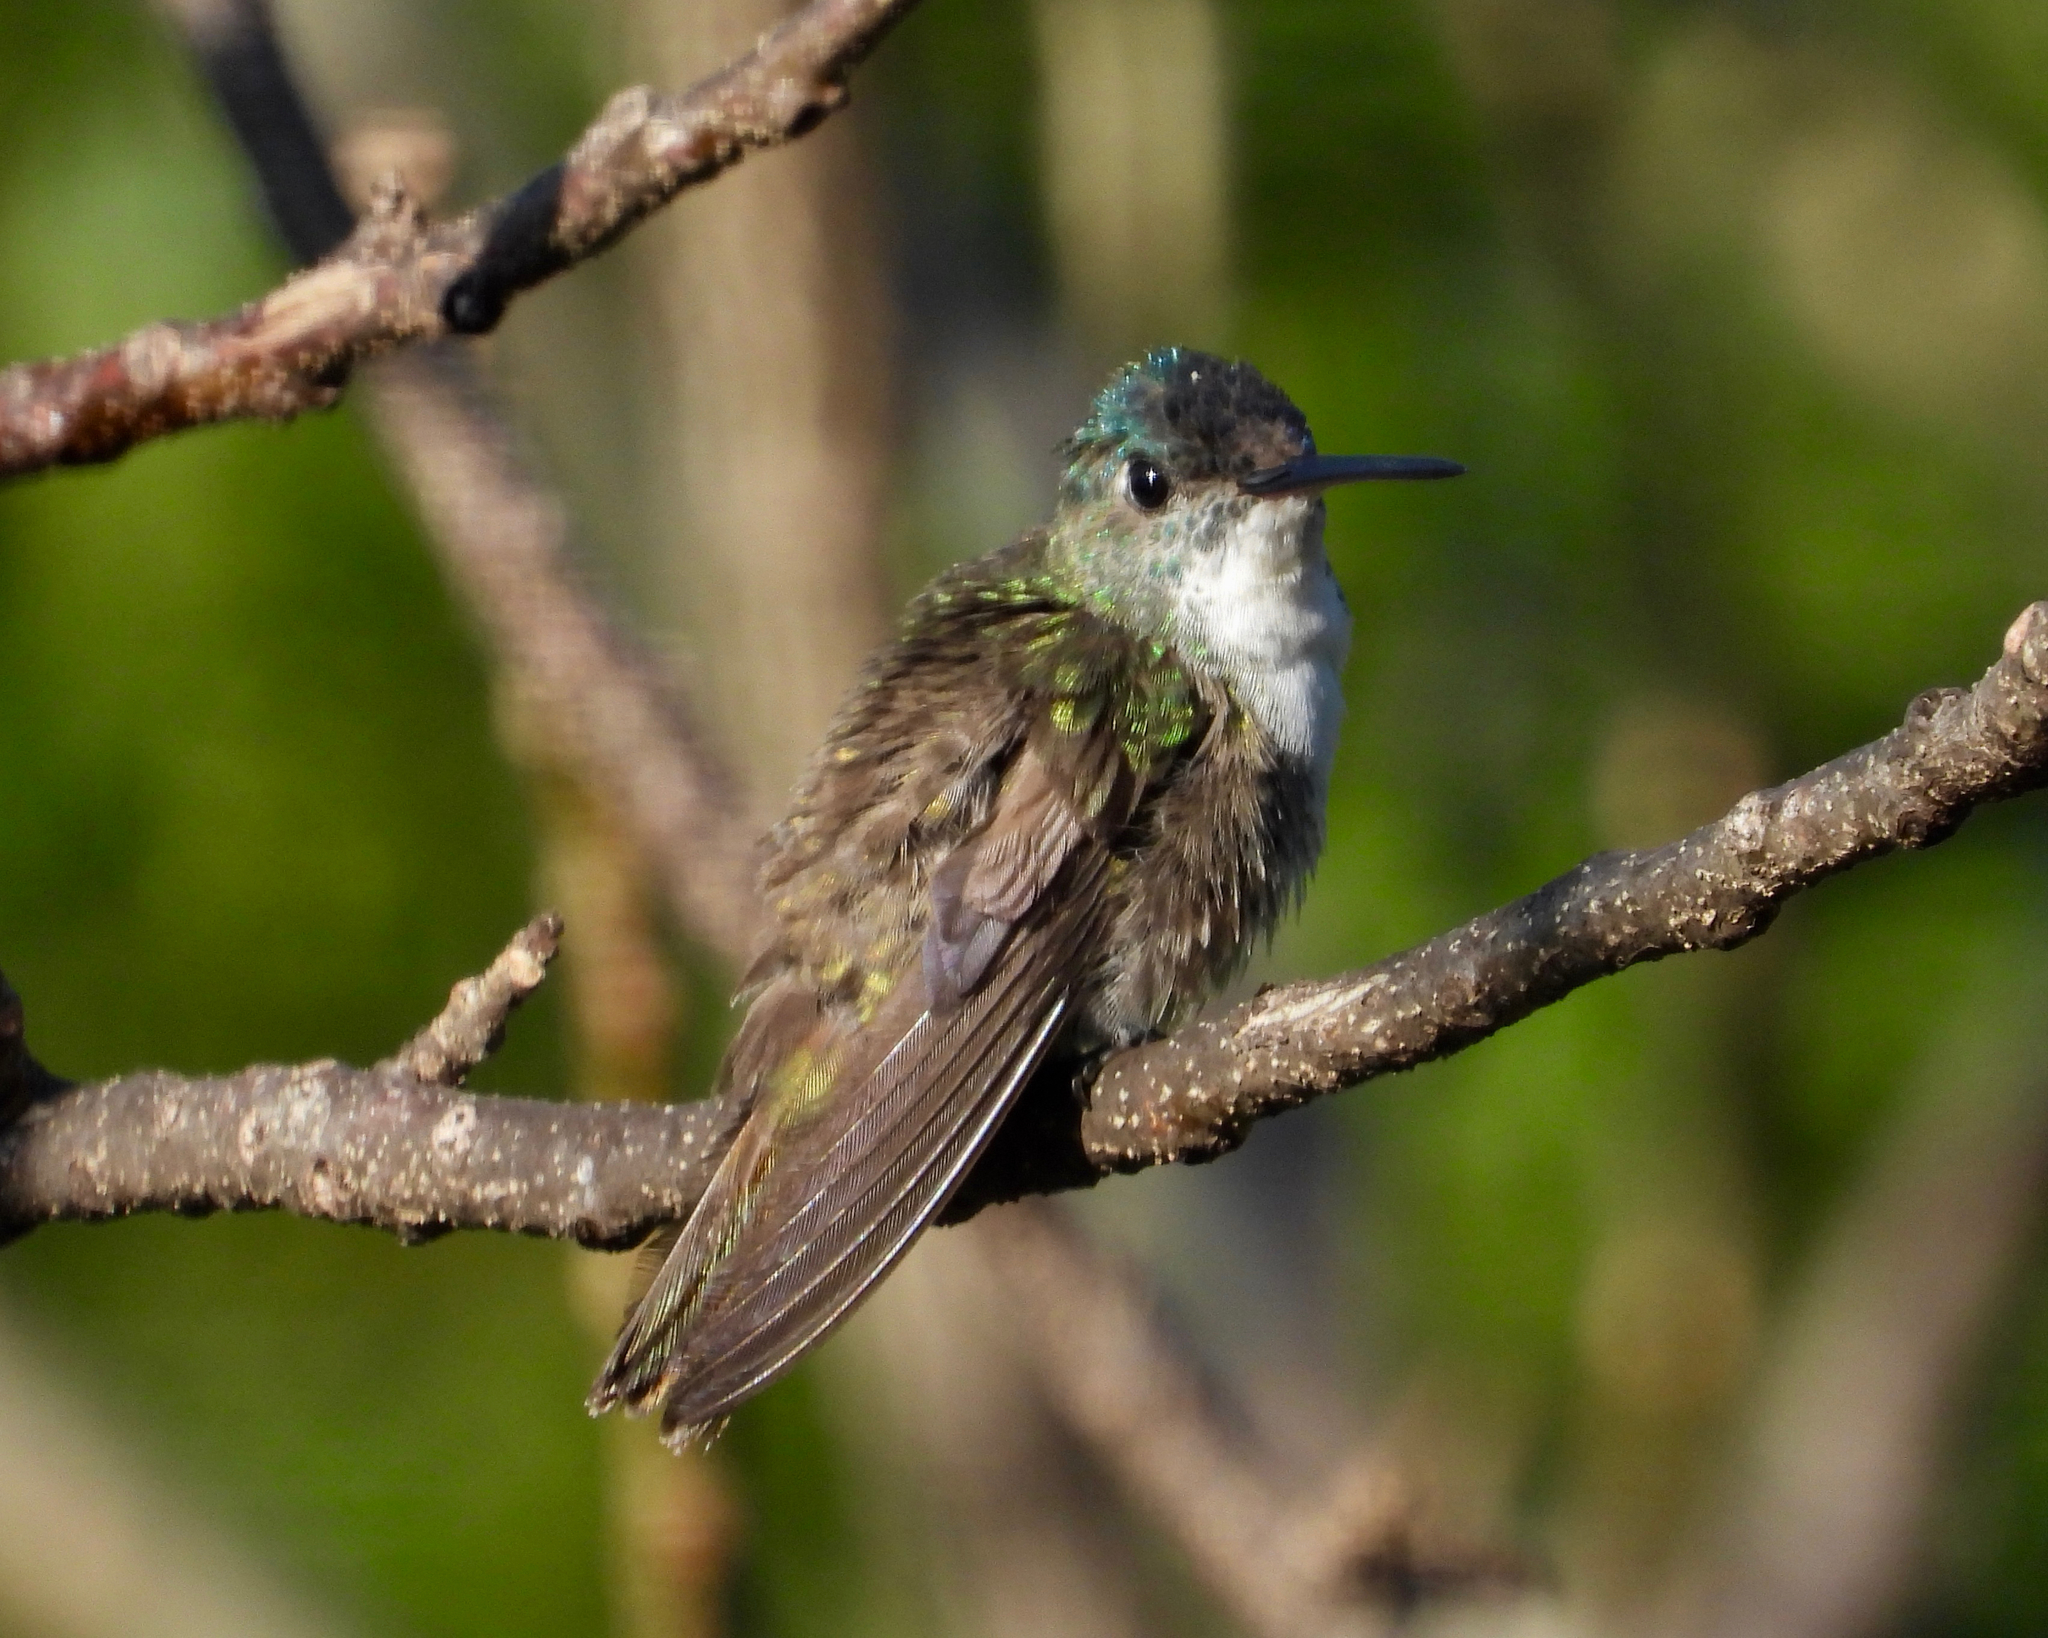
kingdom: Animalia
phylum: Chordata
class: Aves
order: Apodiformes
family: Trochilidae
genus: Saucerottia
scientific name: Saucerottia cyanocephala
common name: Azure-crowned hummingbird
